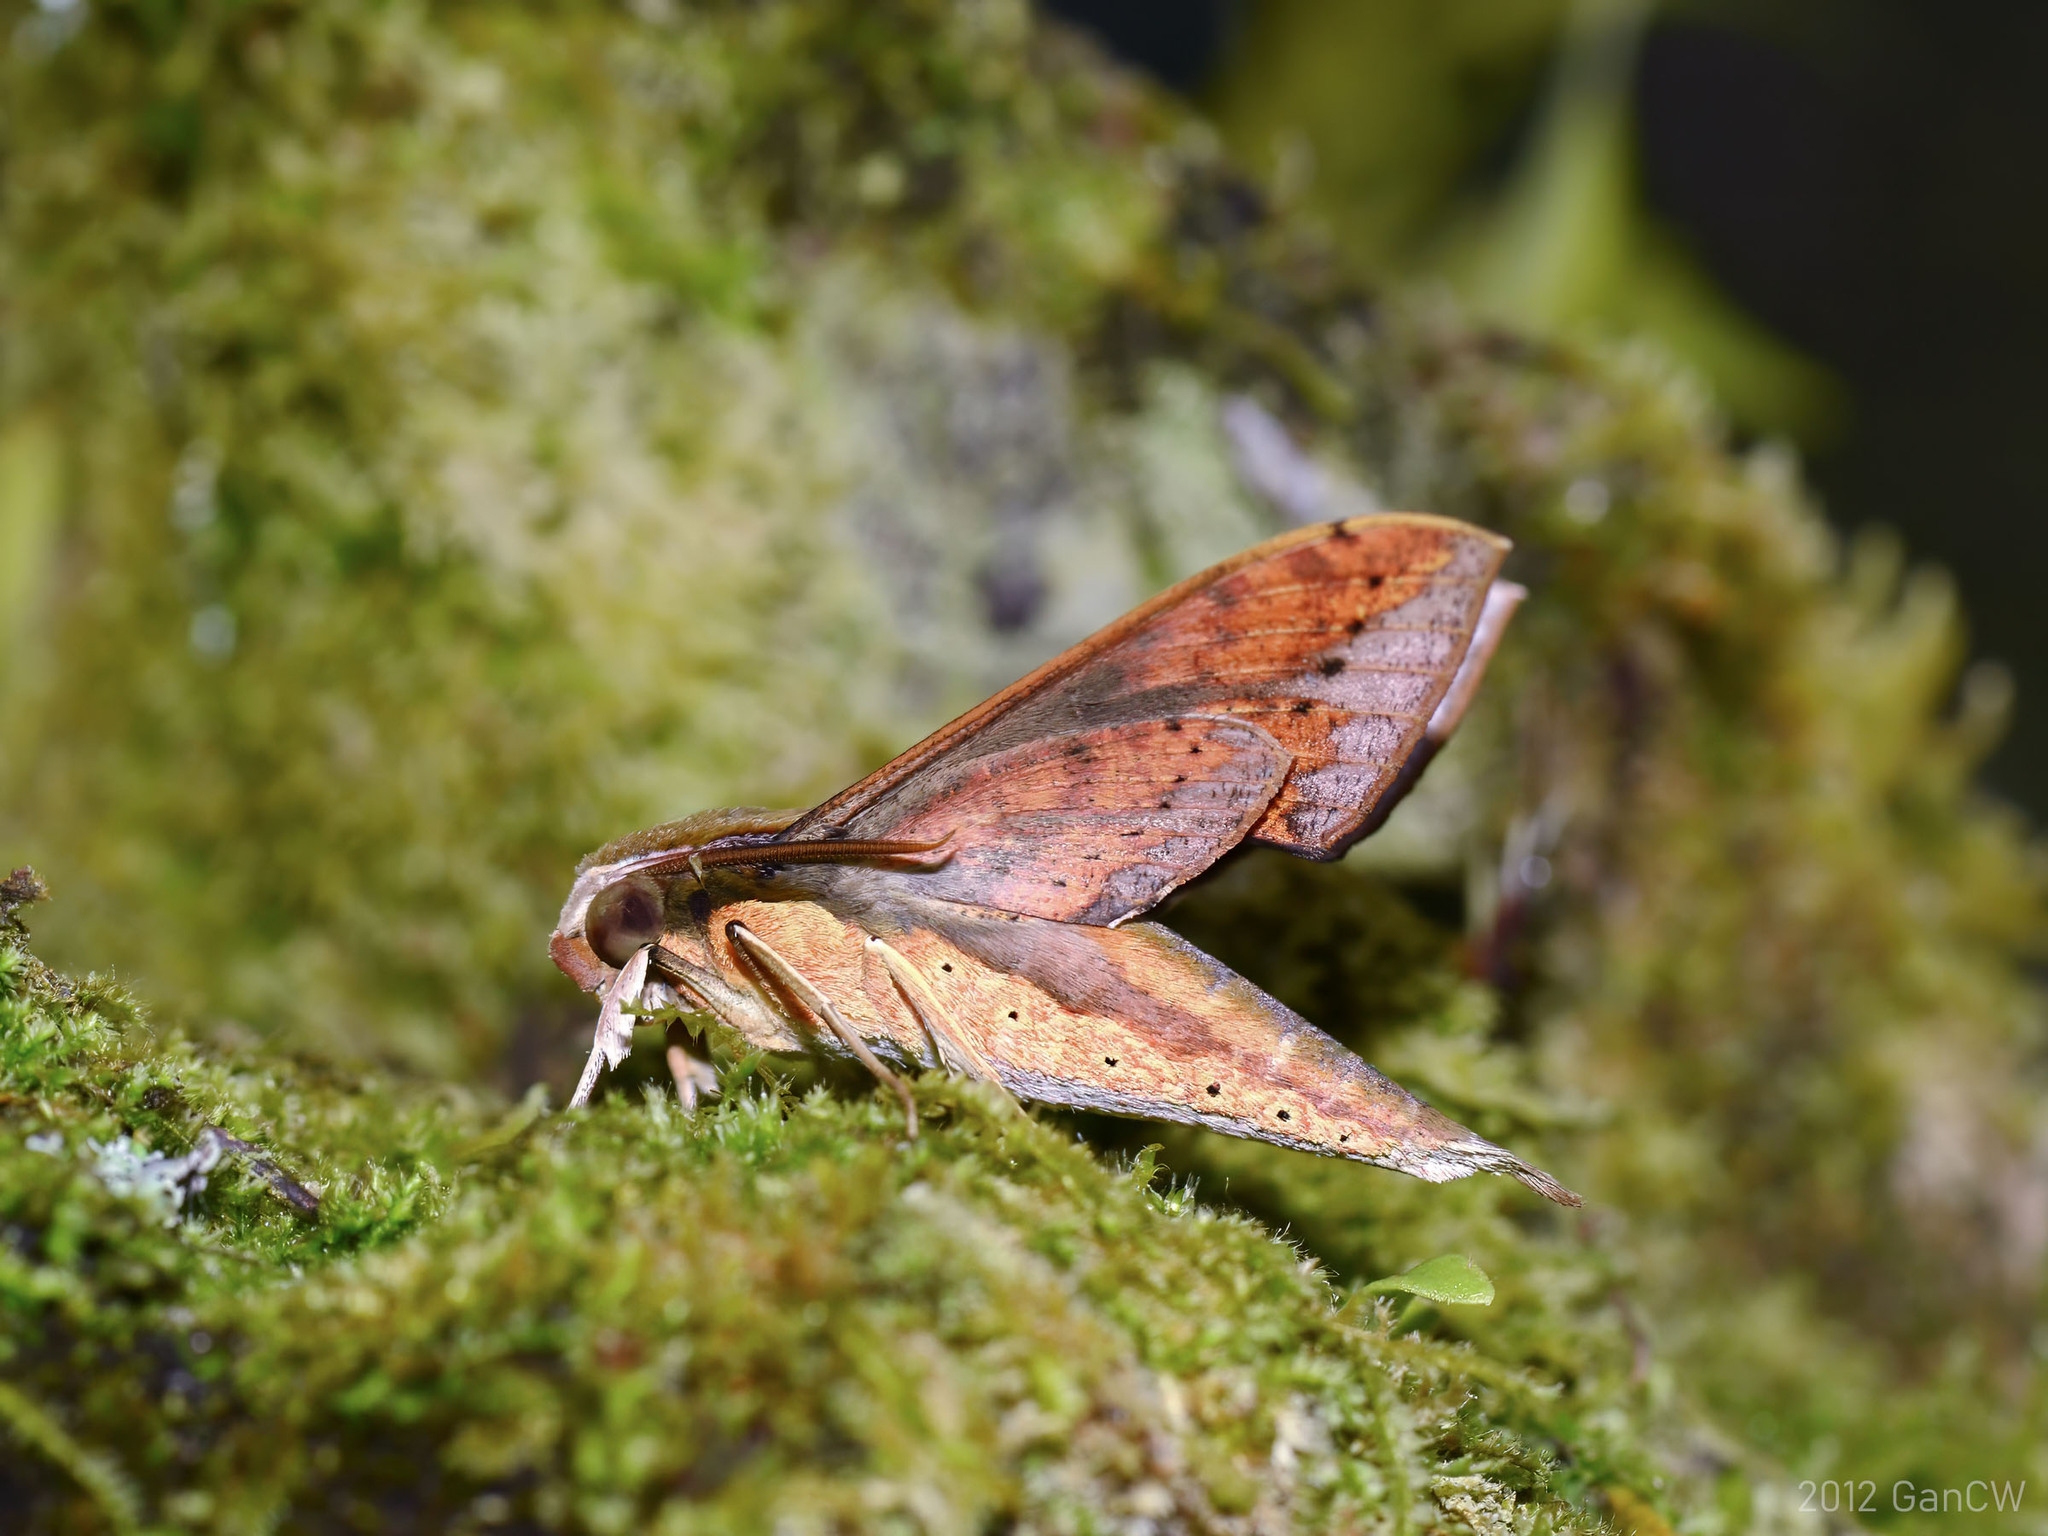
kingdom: Animalia
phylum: Arthropoda
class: Insecta
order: Lepidoptera
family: Sphingidae
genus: Rhagastis
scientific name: Rhagastis castor
